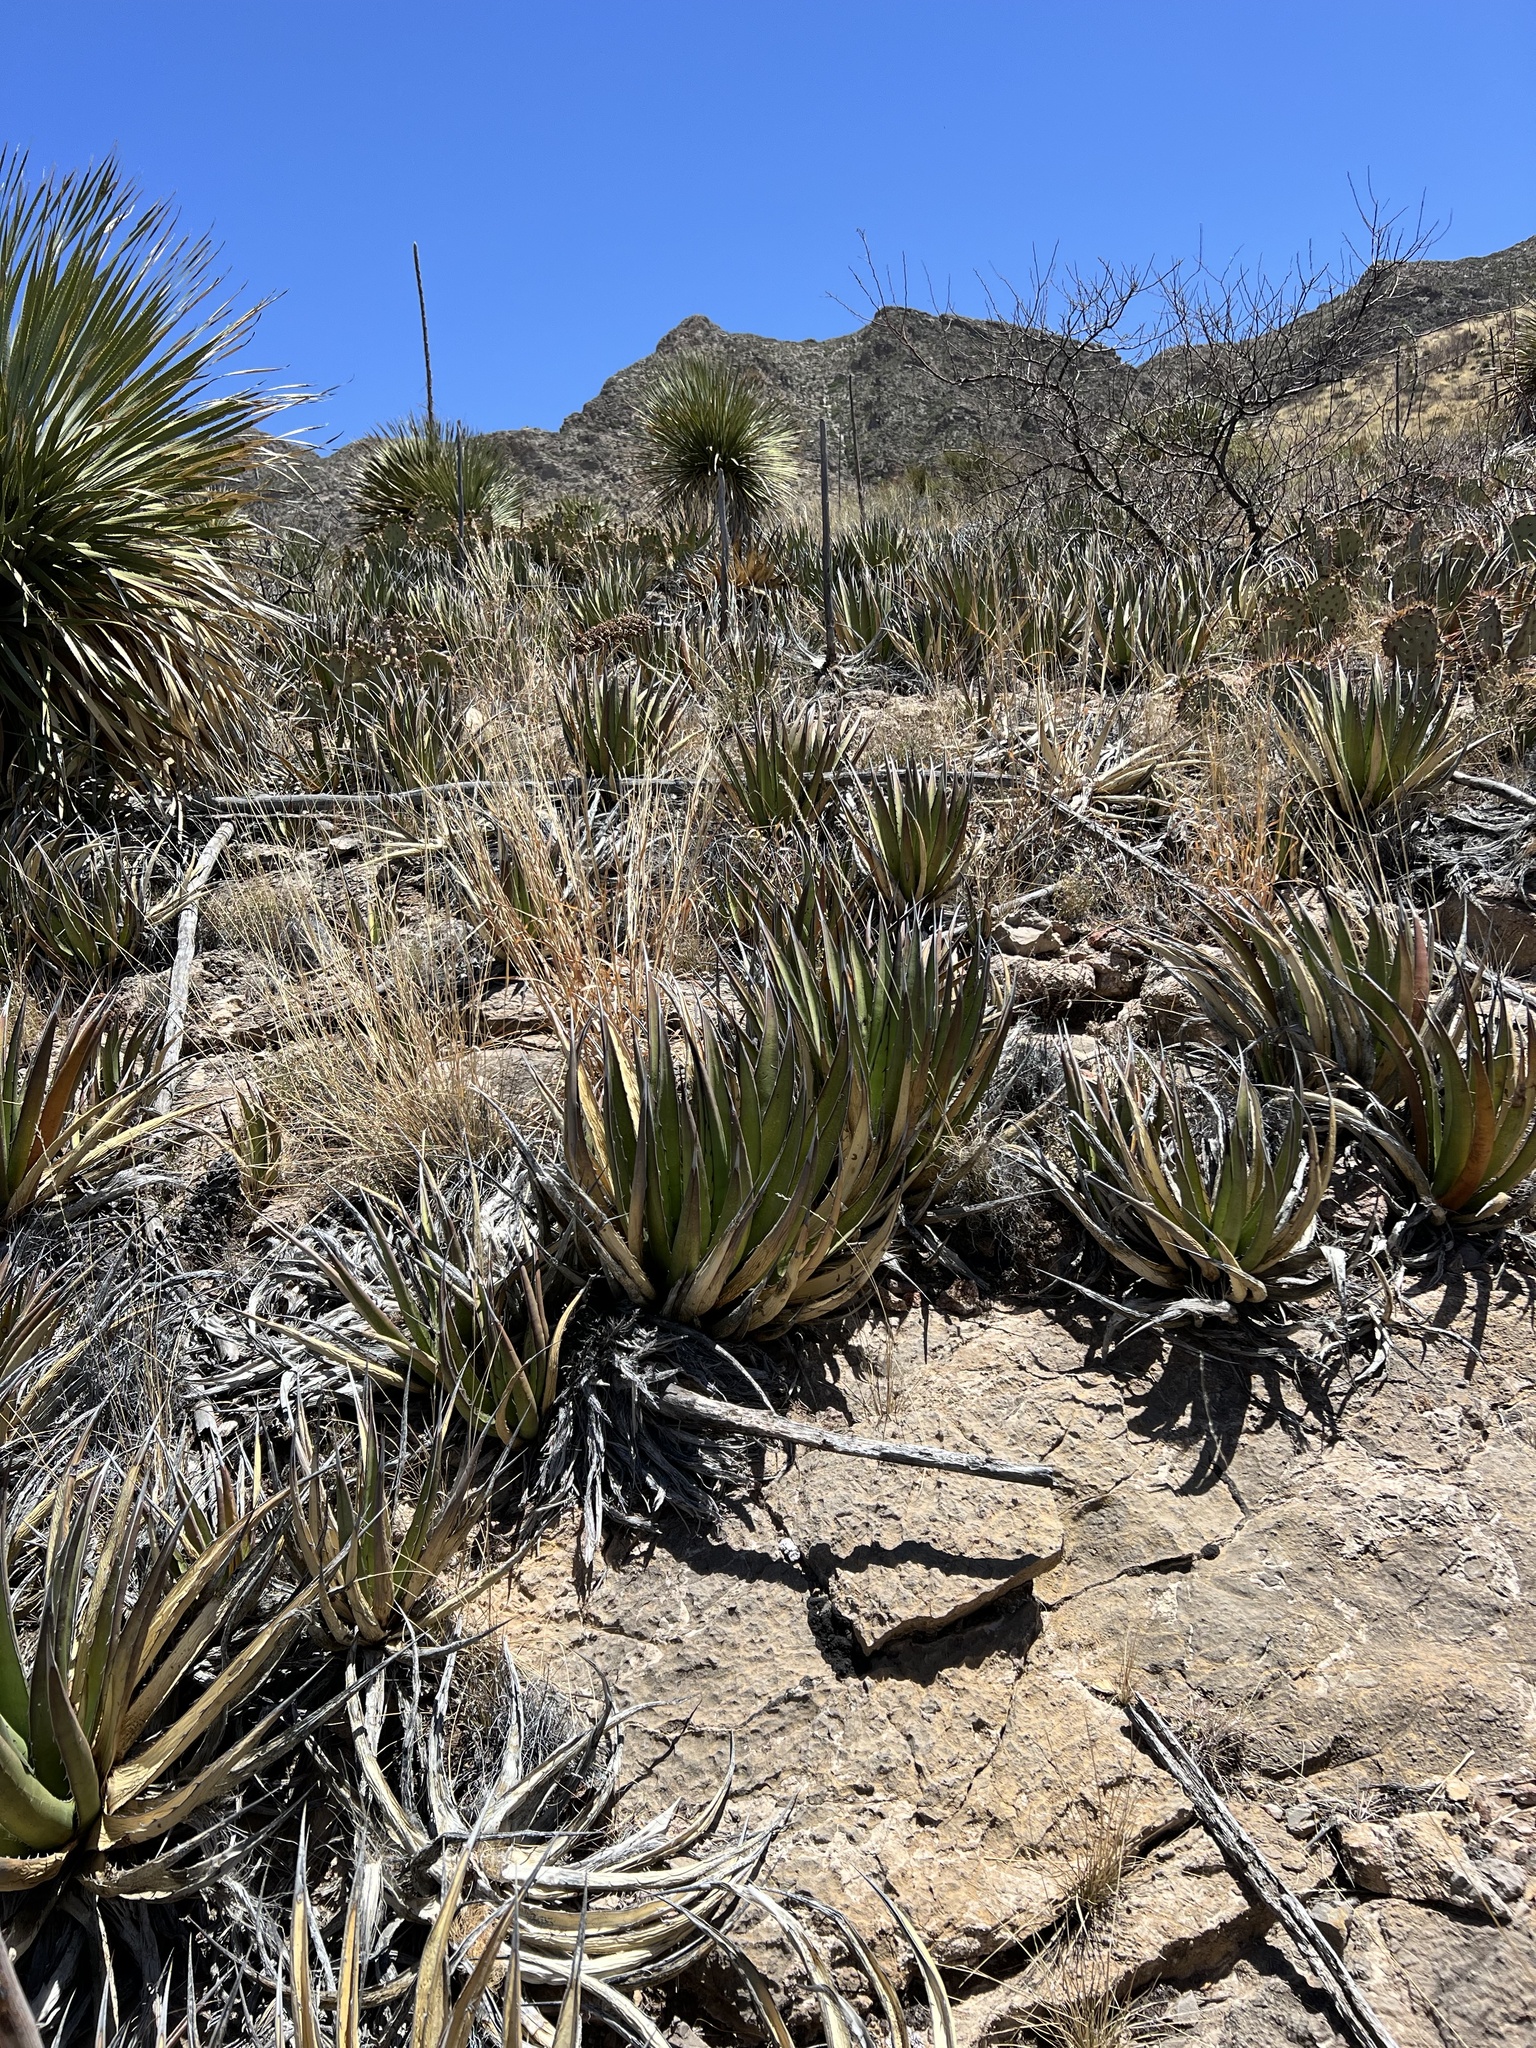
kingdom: Plantae
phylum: Tracheophyta
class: Liliopsida
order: Asparagales
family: Asparagaceae
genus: Agave
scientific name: Agave lechuguilla
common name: Lecheguilla agave
